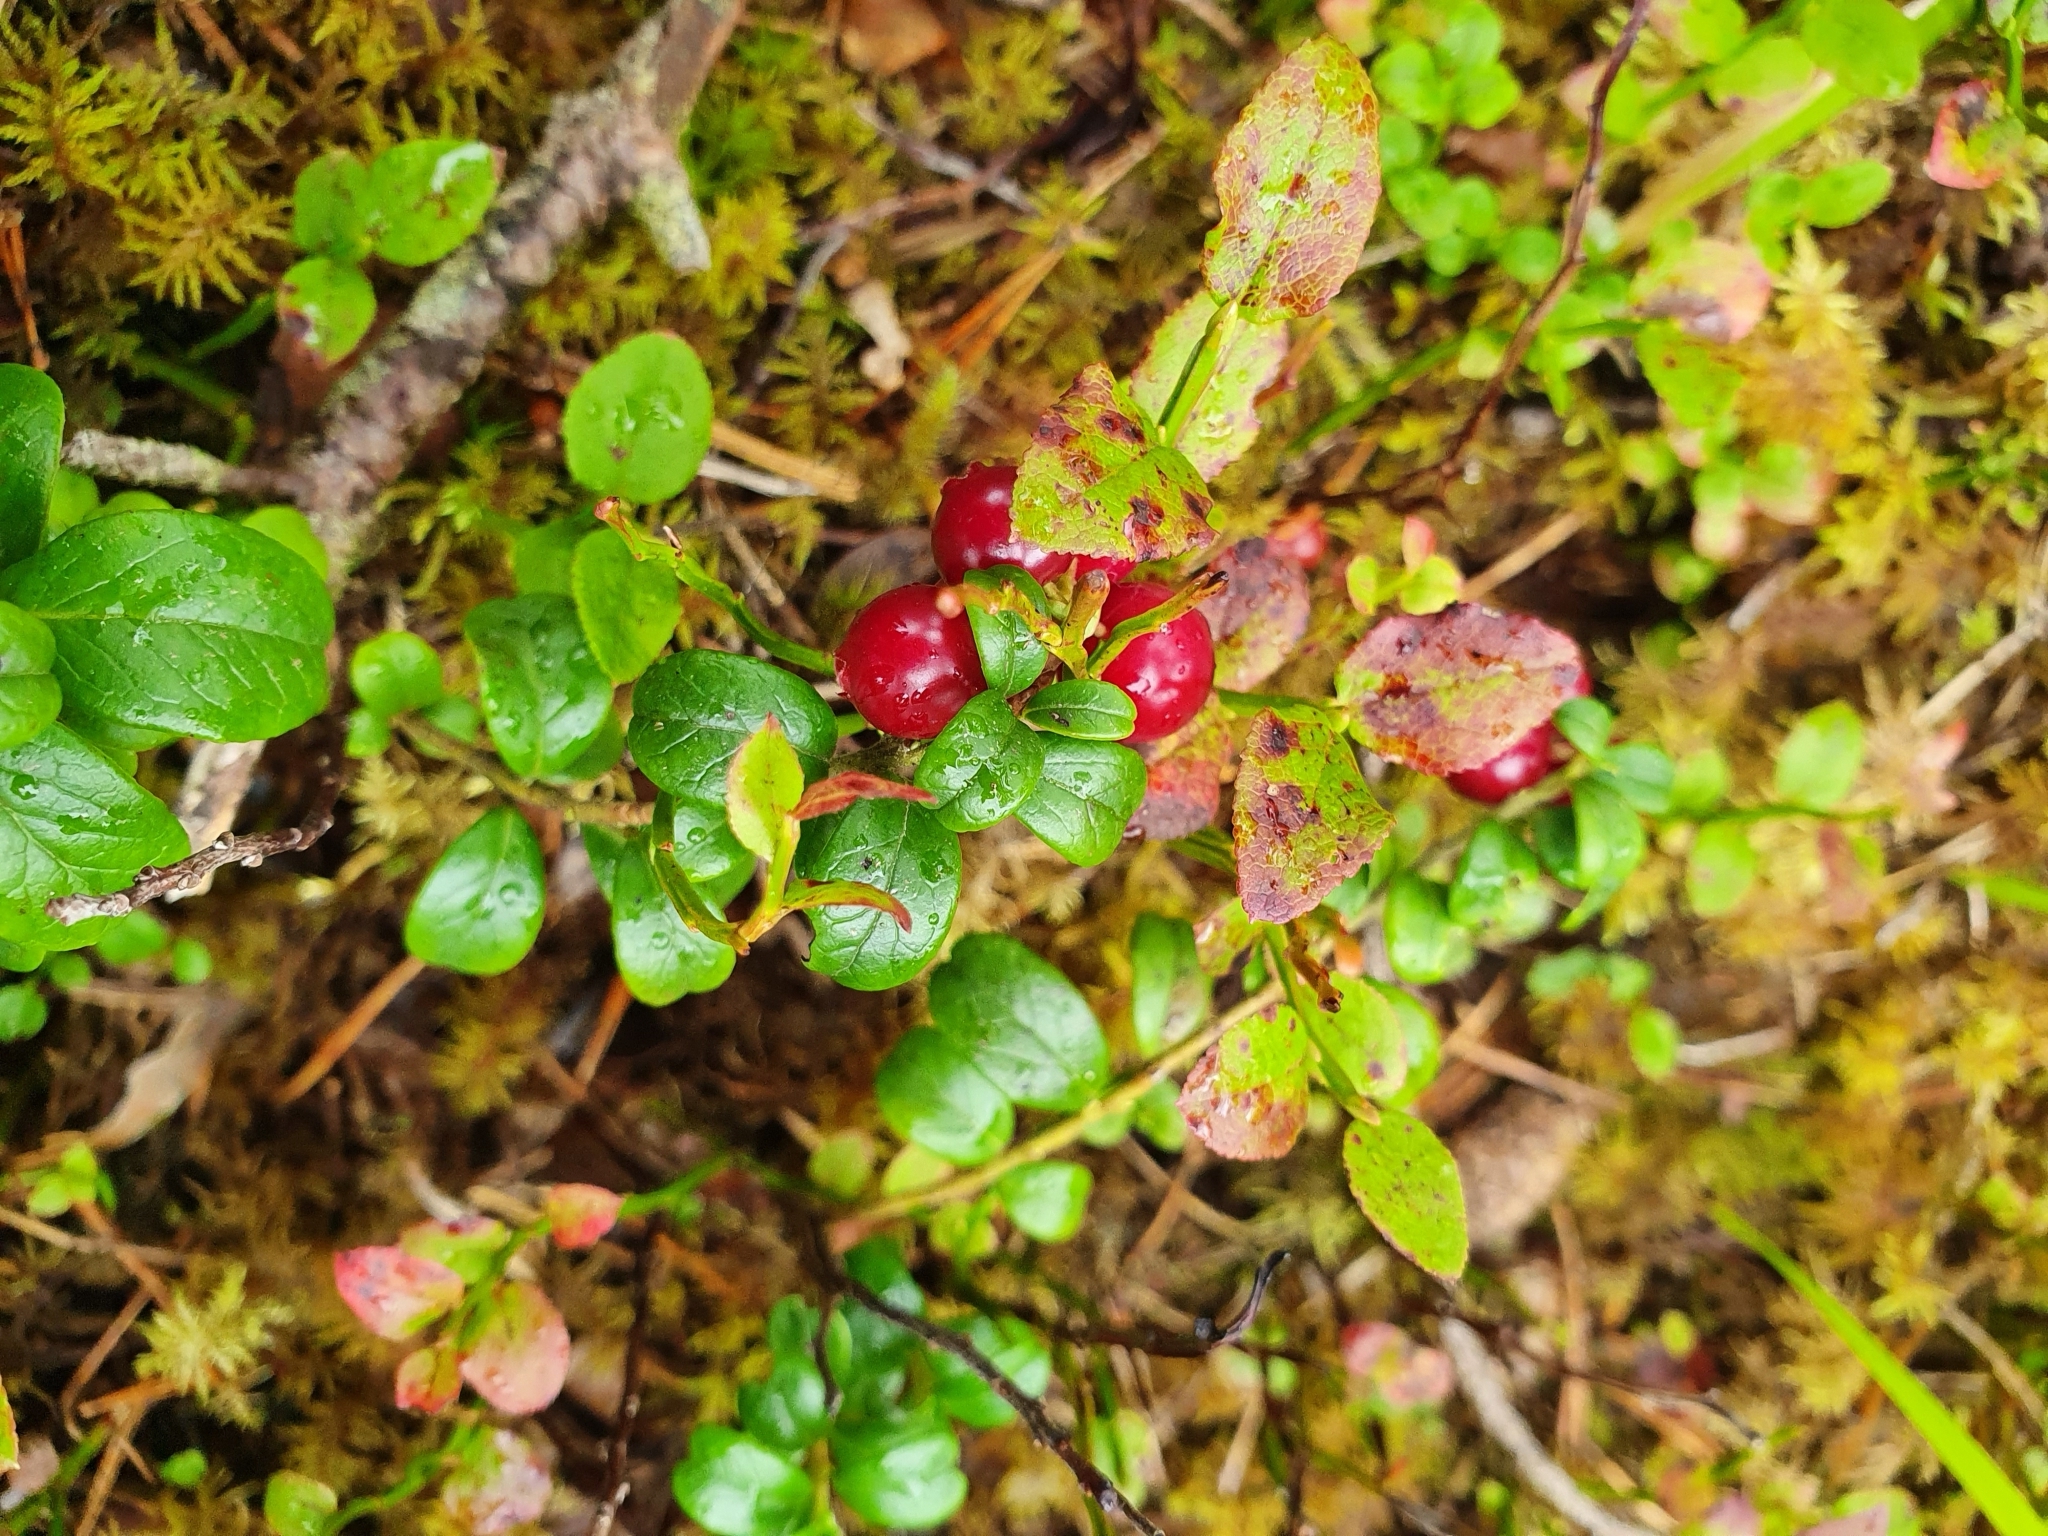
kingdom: Plantae
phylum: Tracheophyta
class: Magnoliopsida
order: Ericales
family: Ericaceae
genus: Vaccinium
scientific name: Vaccinium vitis-idaea
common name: Cowberry
